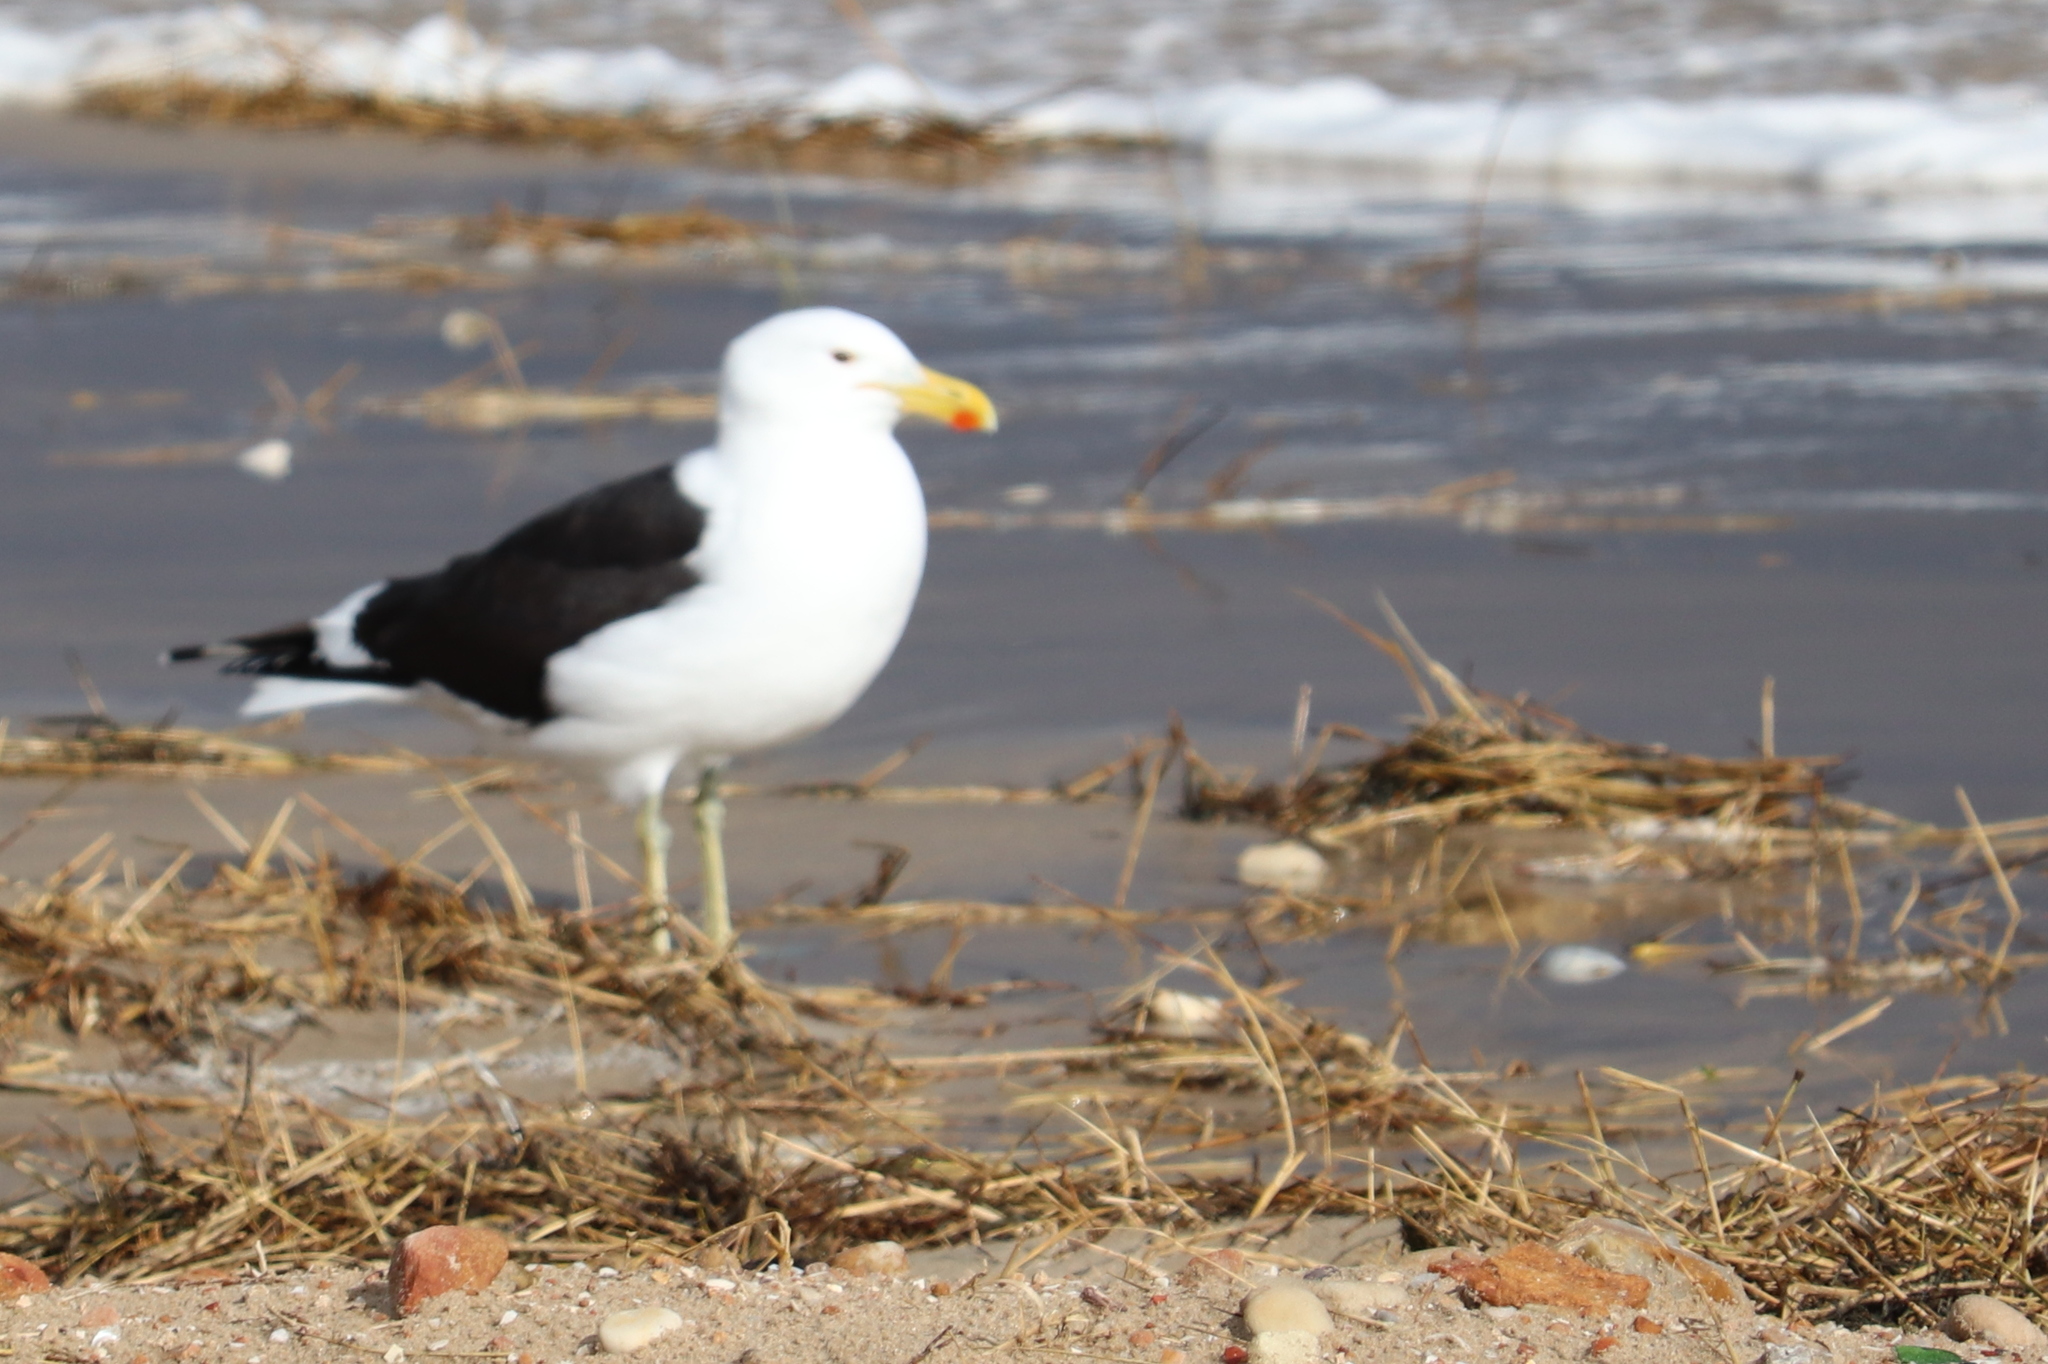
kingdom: Animalia
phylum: Chordata
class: Aves
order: Charadriiformes
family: Laridae
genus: Larus
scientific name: Larus dominicanus
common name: Kelp gull
